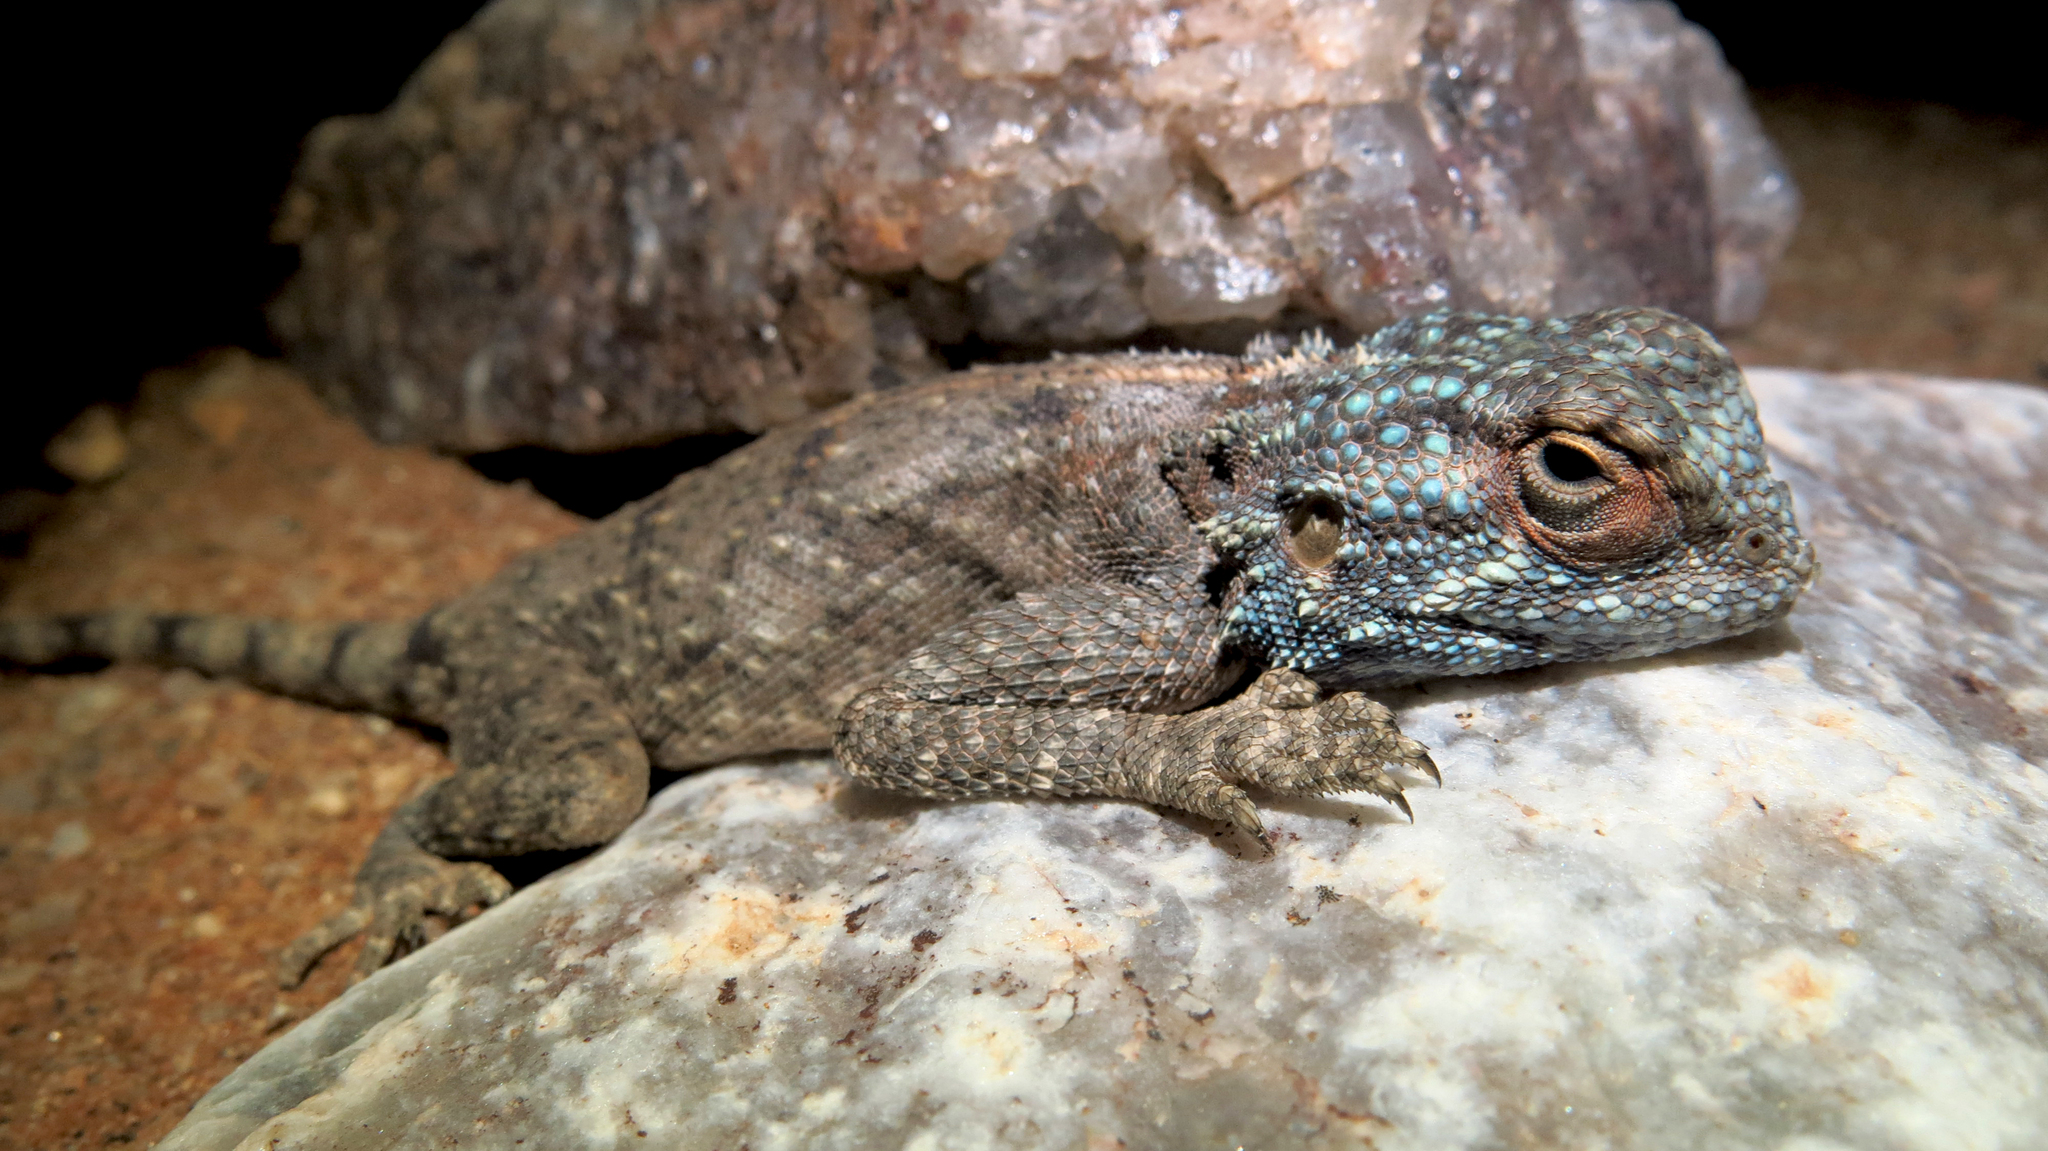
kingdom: Animalia
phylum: Chordata
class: Squamata
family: Agamidae
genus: Agama
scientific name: Agama anchietae
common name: Anchieta's agama
